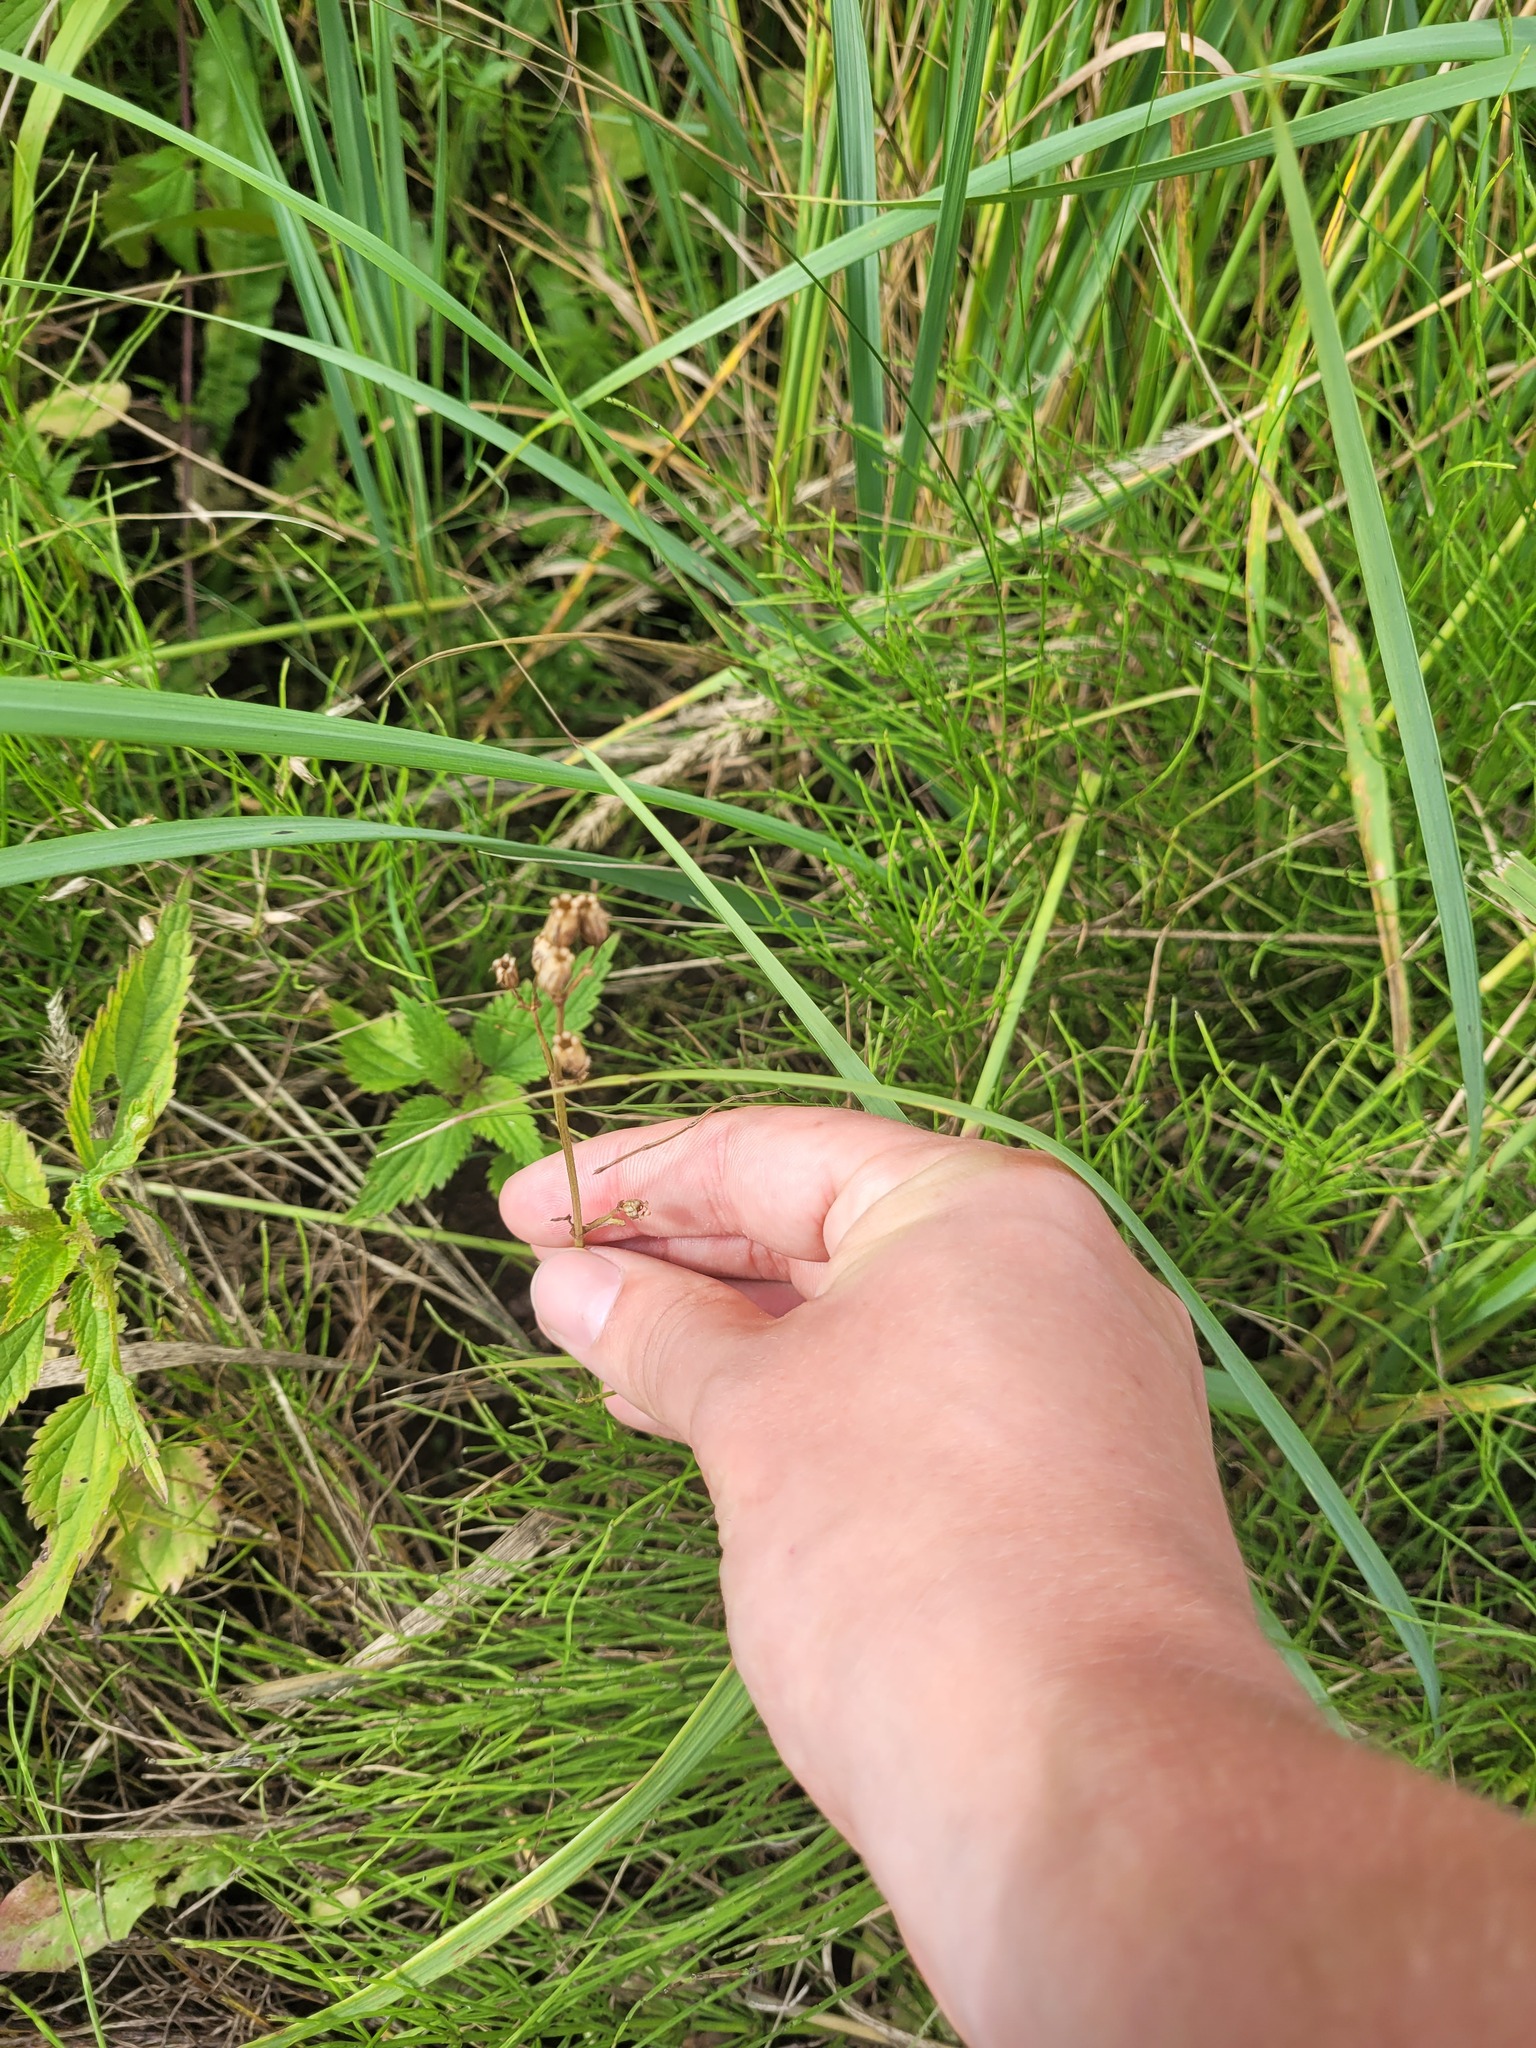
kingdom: Plantae
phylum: Tracheophyta
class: Magnoliopsida
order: Caryophyllales
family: Caryophyllaceae
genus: Silene
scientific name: Silene flos-cuculi
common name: Ragged-robin
